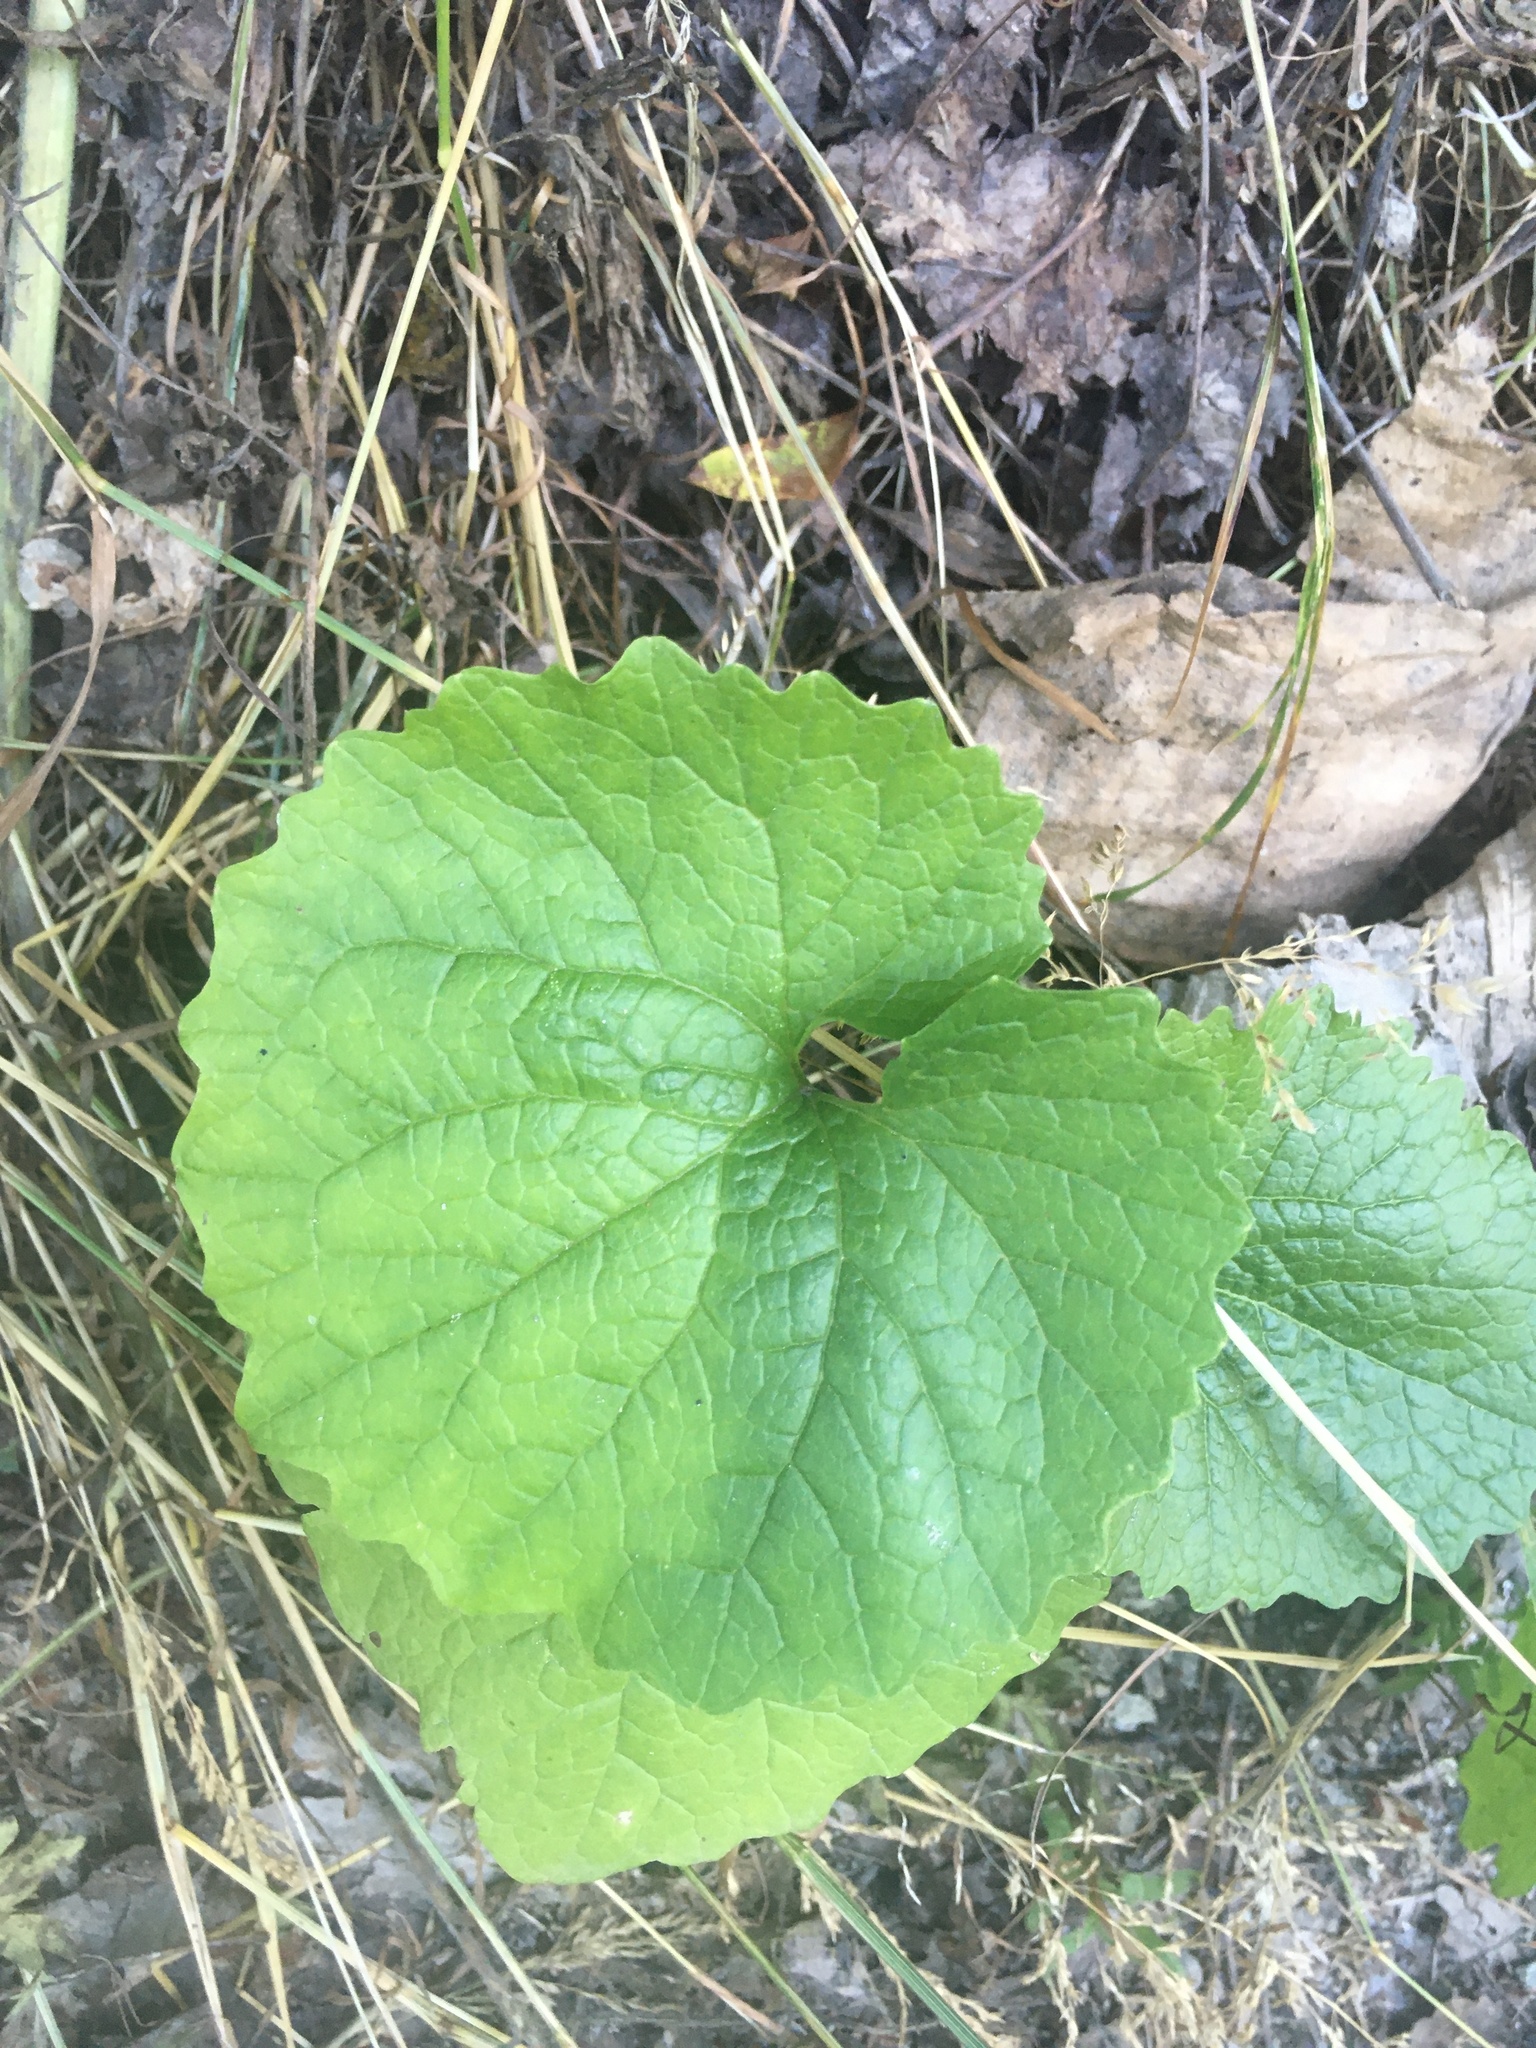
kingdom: Plantae
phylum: Tracheophyta
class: Magnoliopsida
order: Brassicales
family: Brassicaceae
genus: Alliaria
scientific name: Alliaria petiolata
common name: Garlic mustard
